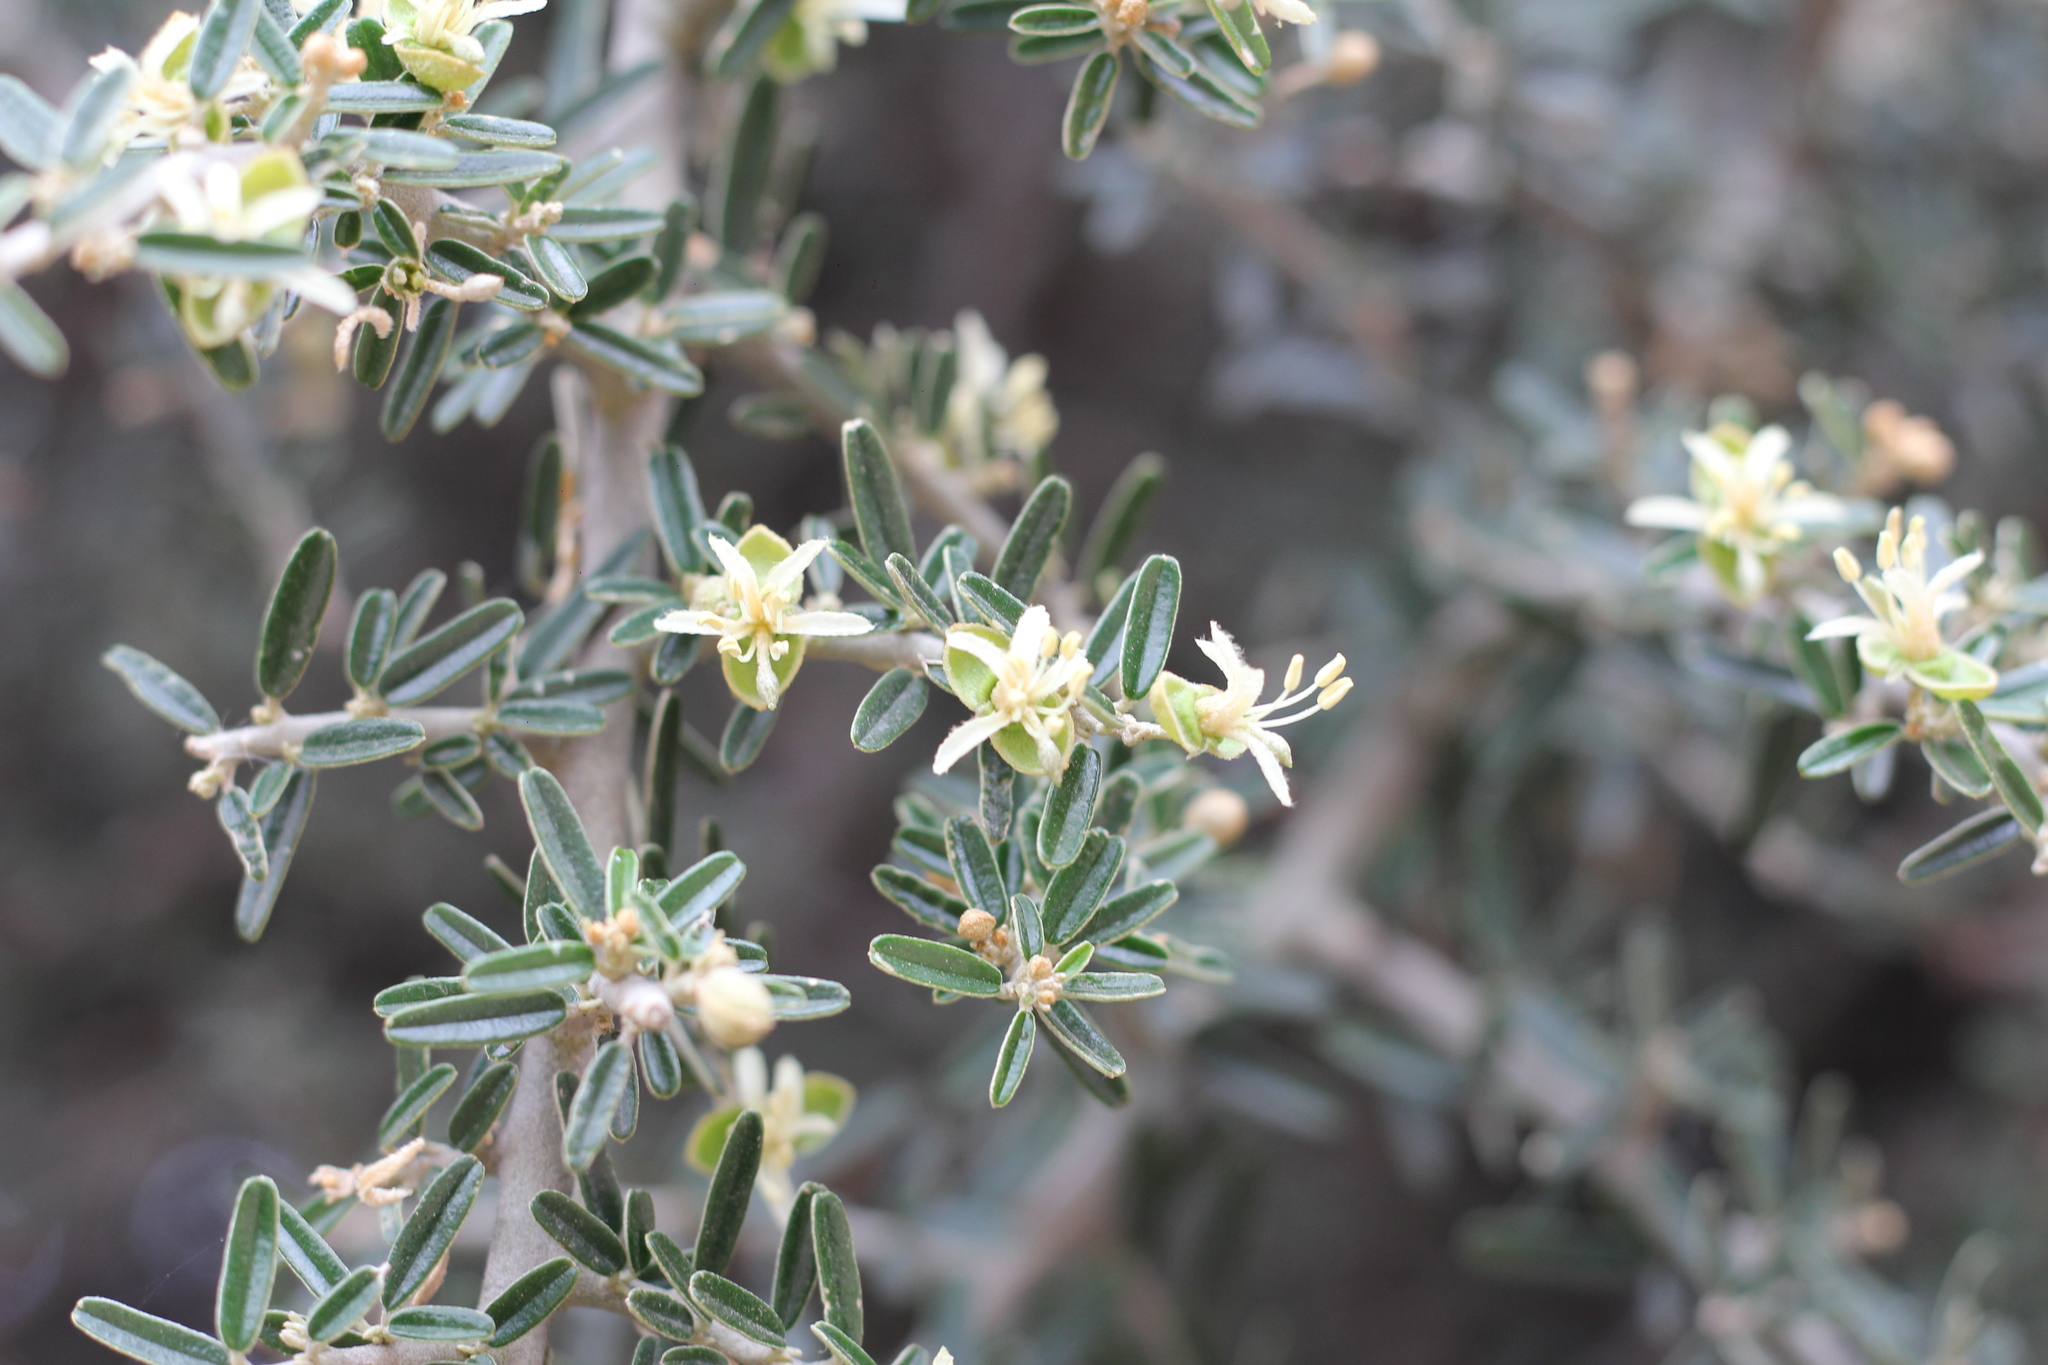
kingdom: Plantae
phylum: Tracheophyta
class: Magnoliopsida
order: Brassicales
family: Capparaceae
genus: Atamisquea
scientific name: Atamisquea emarginata
